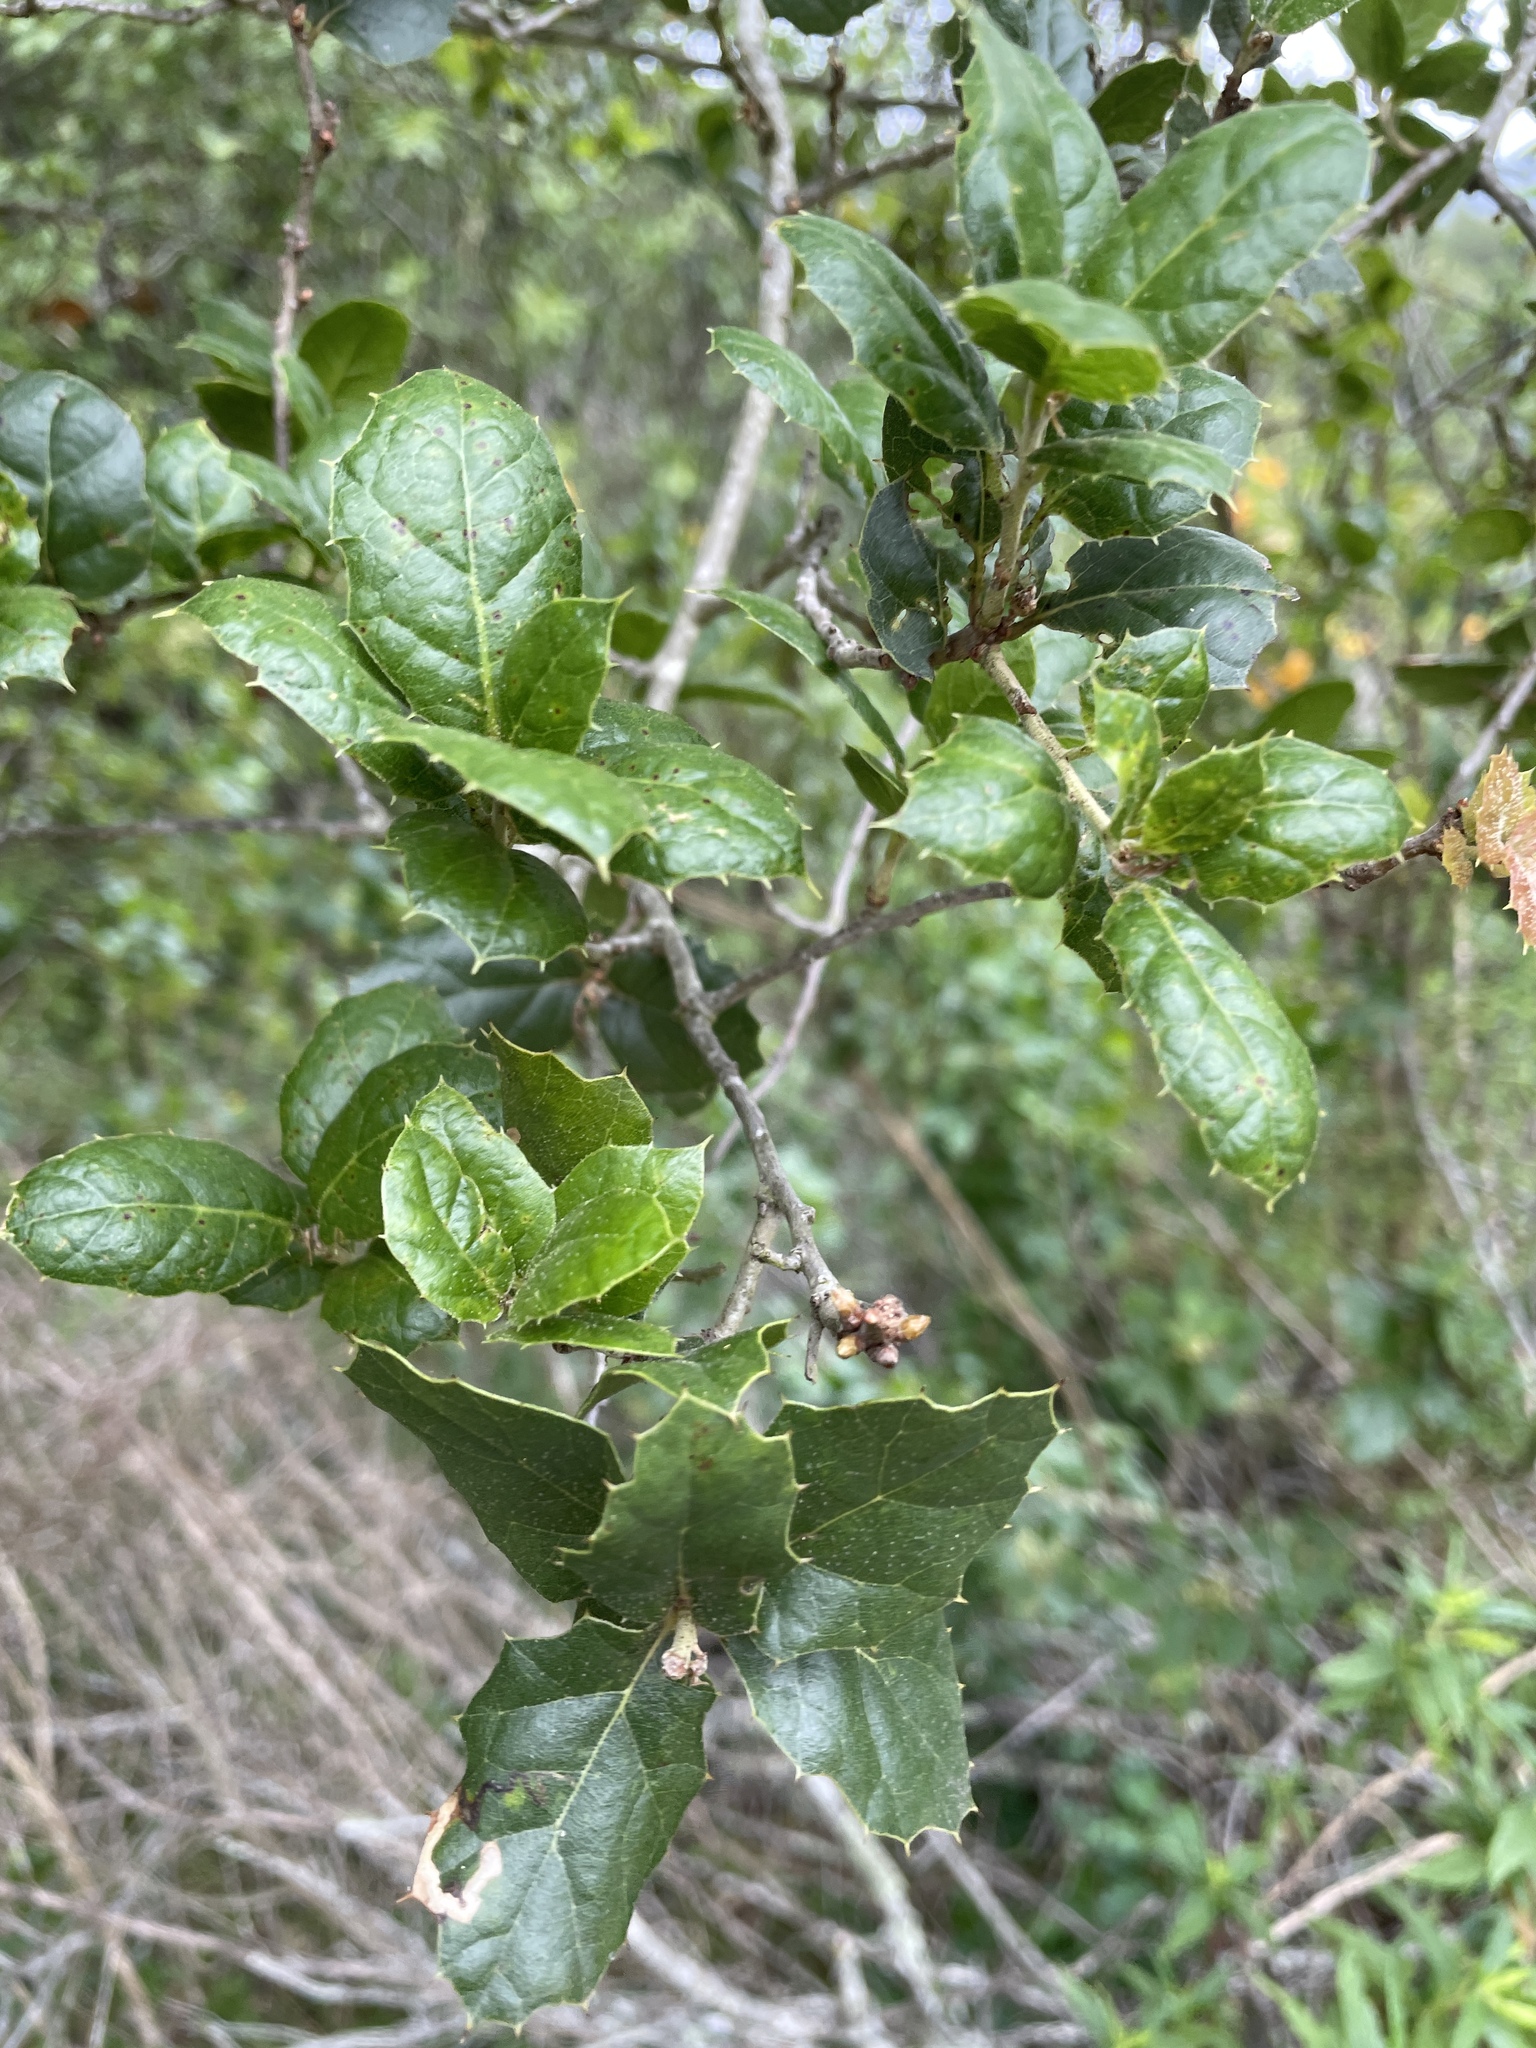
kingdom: Plantae
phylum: Tracheophyta
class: Magnoliopsida
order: Fagales
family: Fagaceae
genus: Quercus
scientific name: Quercus agrifolia
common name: California live oak
